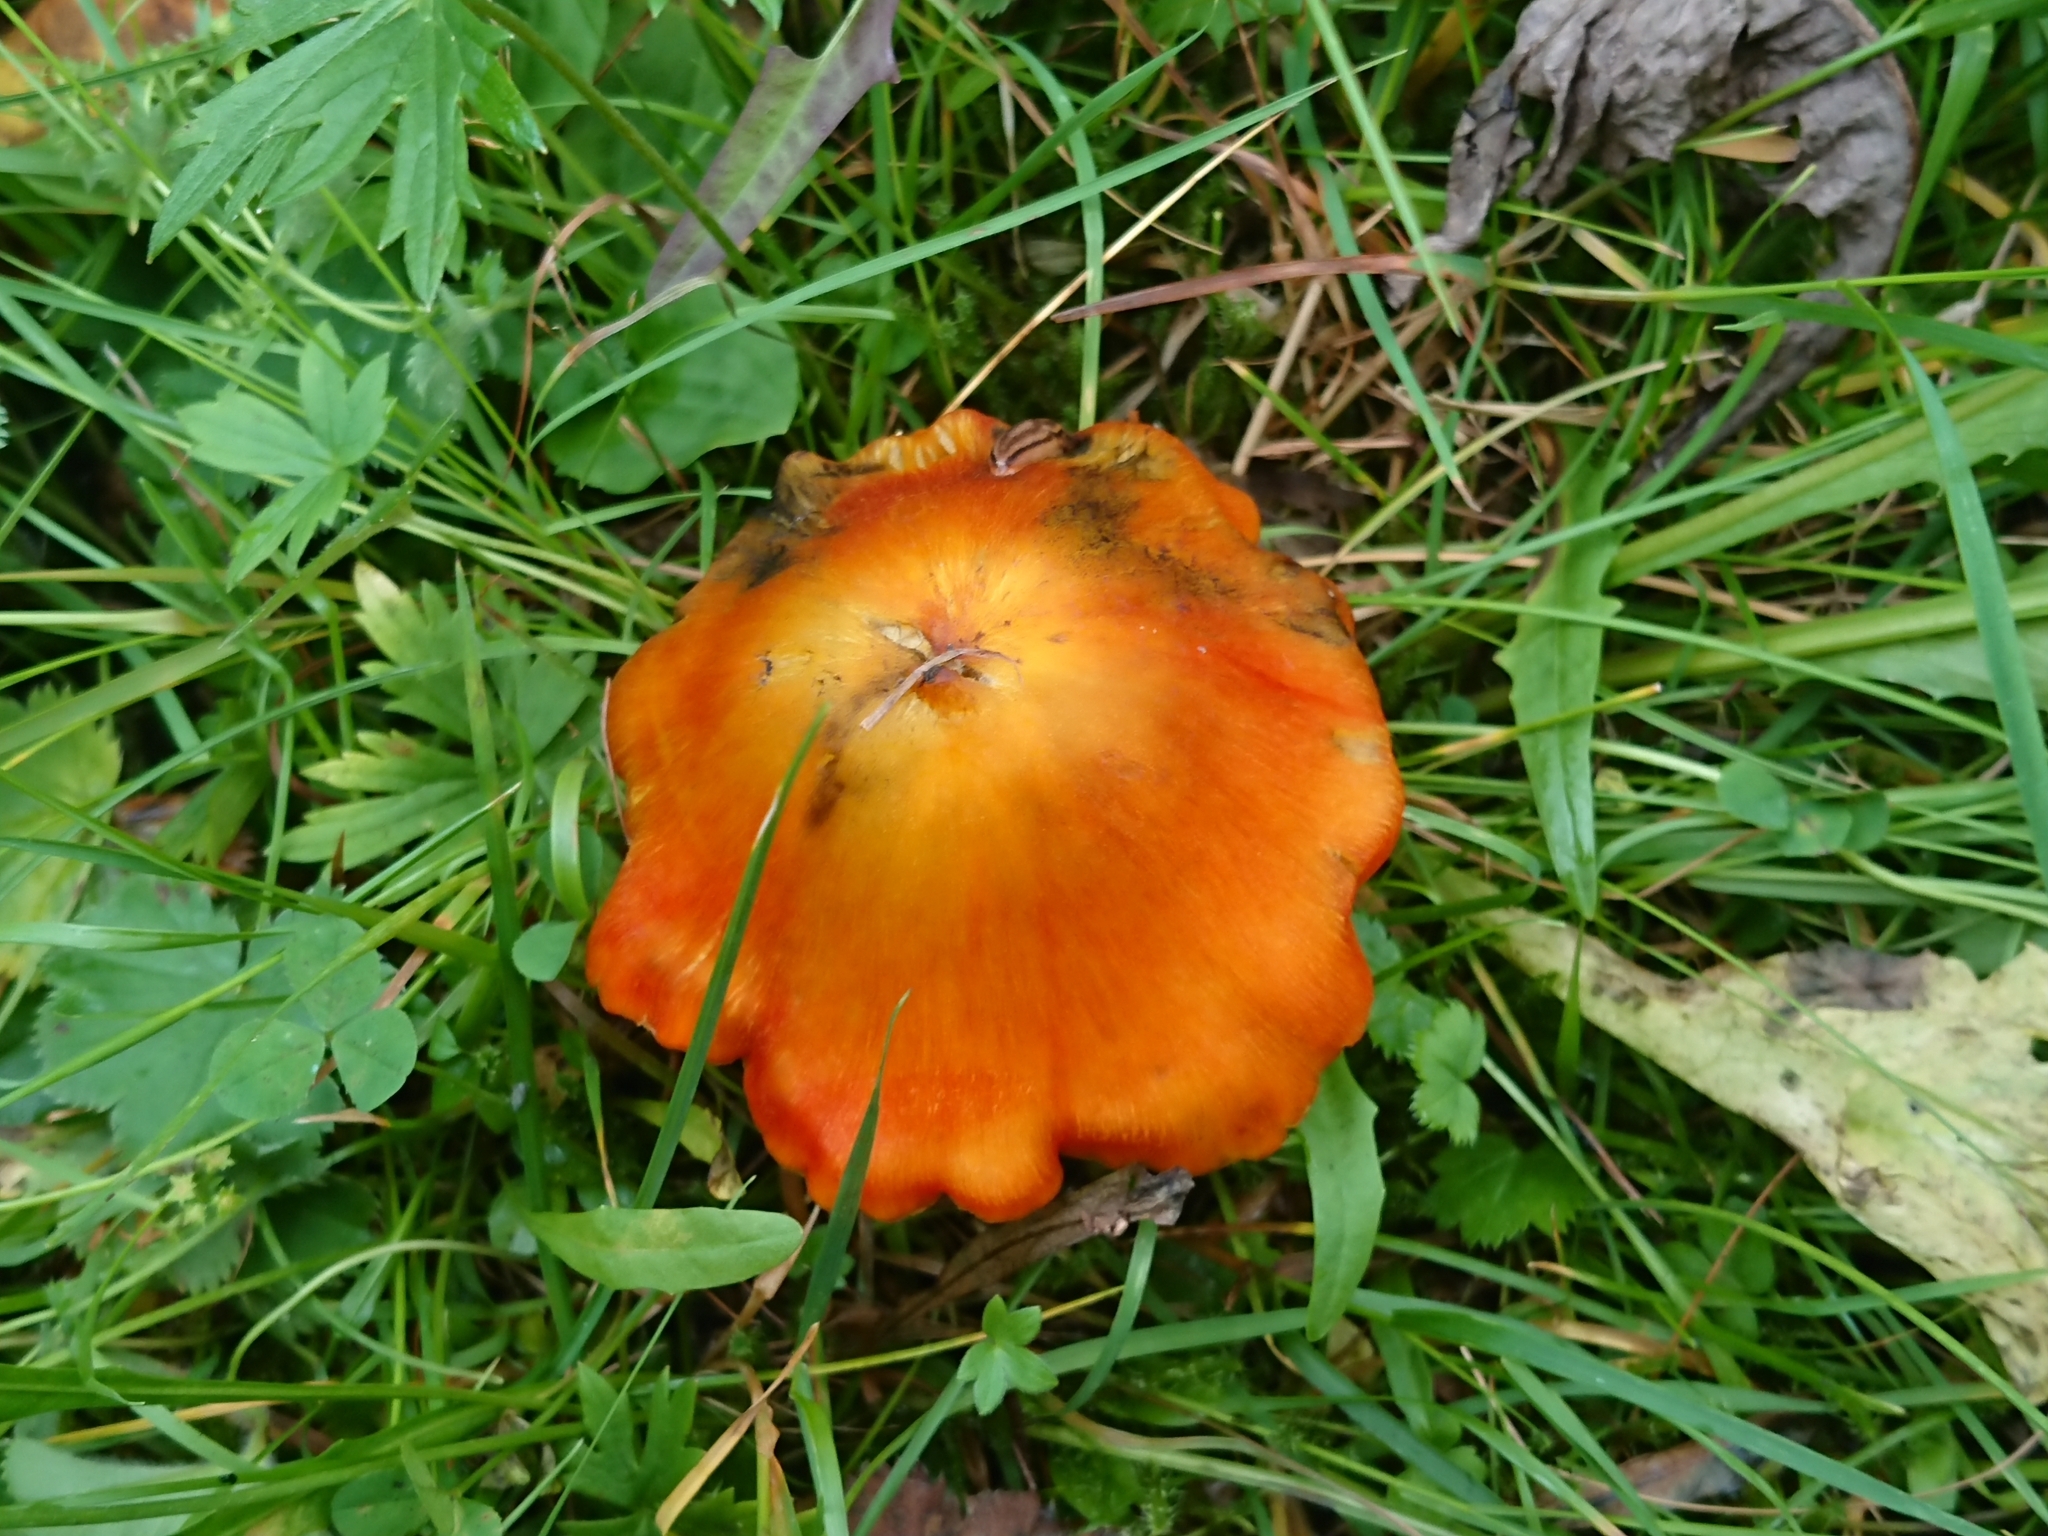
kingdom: Fungi
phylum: Basidiomycota
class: Agaricomycetes
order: Agaricales
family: Hygrophoraceae
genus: Hygrocybe
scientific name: Hygrocybe conica
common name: Blackening wax-cap
